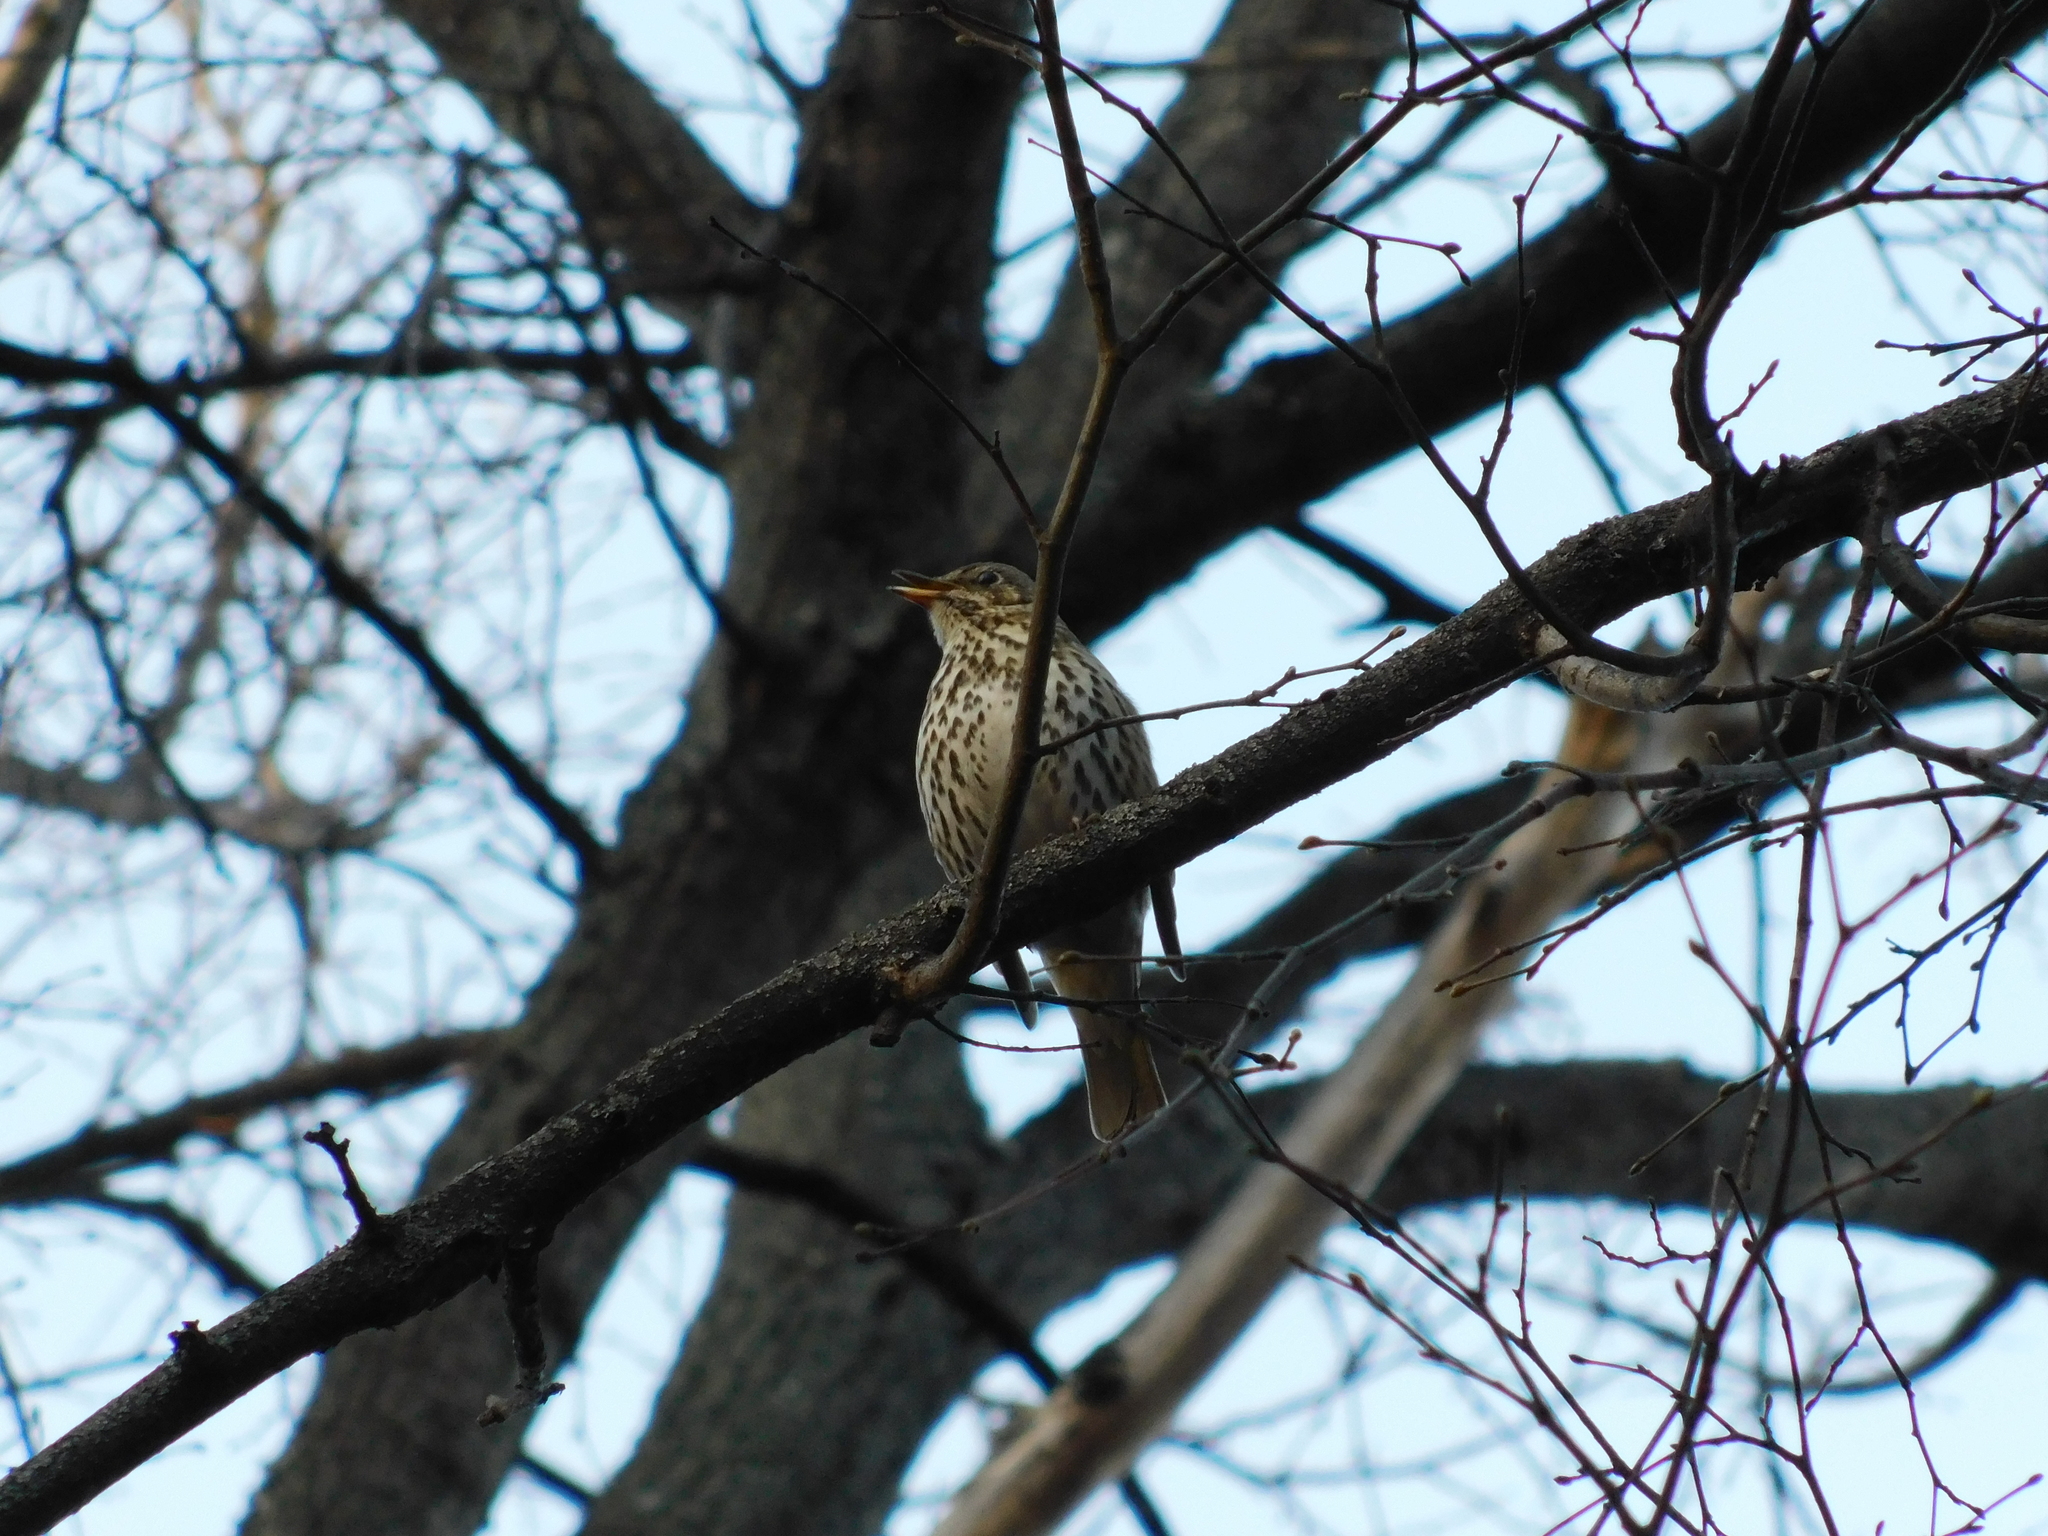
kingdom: Animalia
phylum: Chordata
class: Aves
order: Passeriformes
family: Turdidae
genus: Turdus
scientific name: Turdus philomelos
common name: Song thrush
